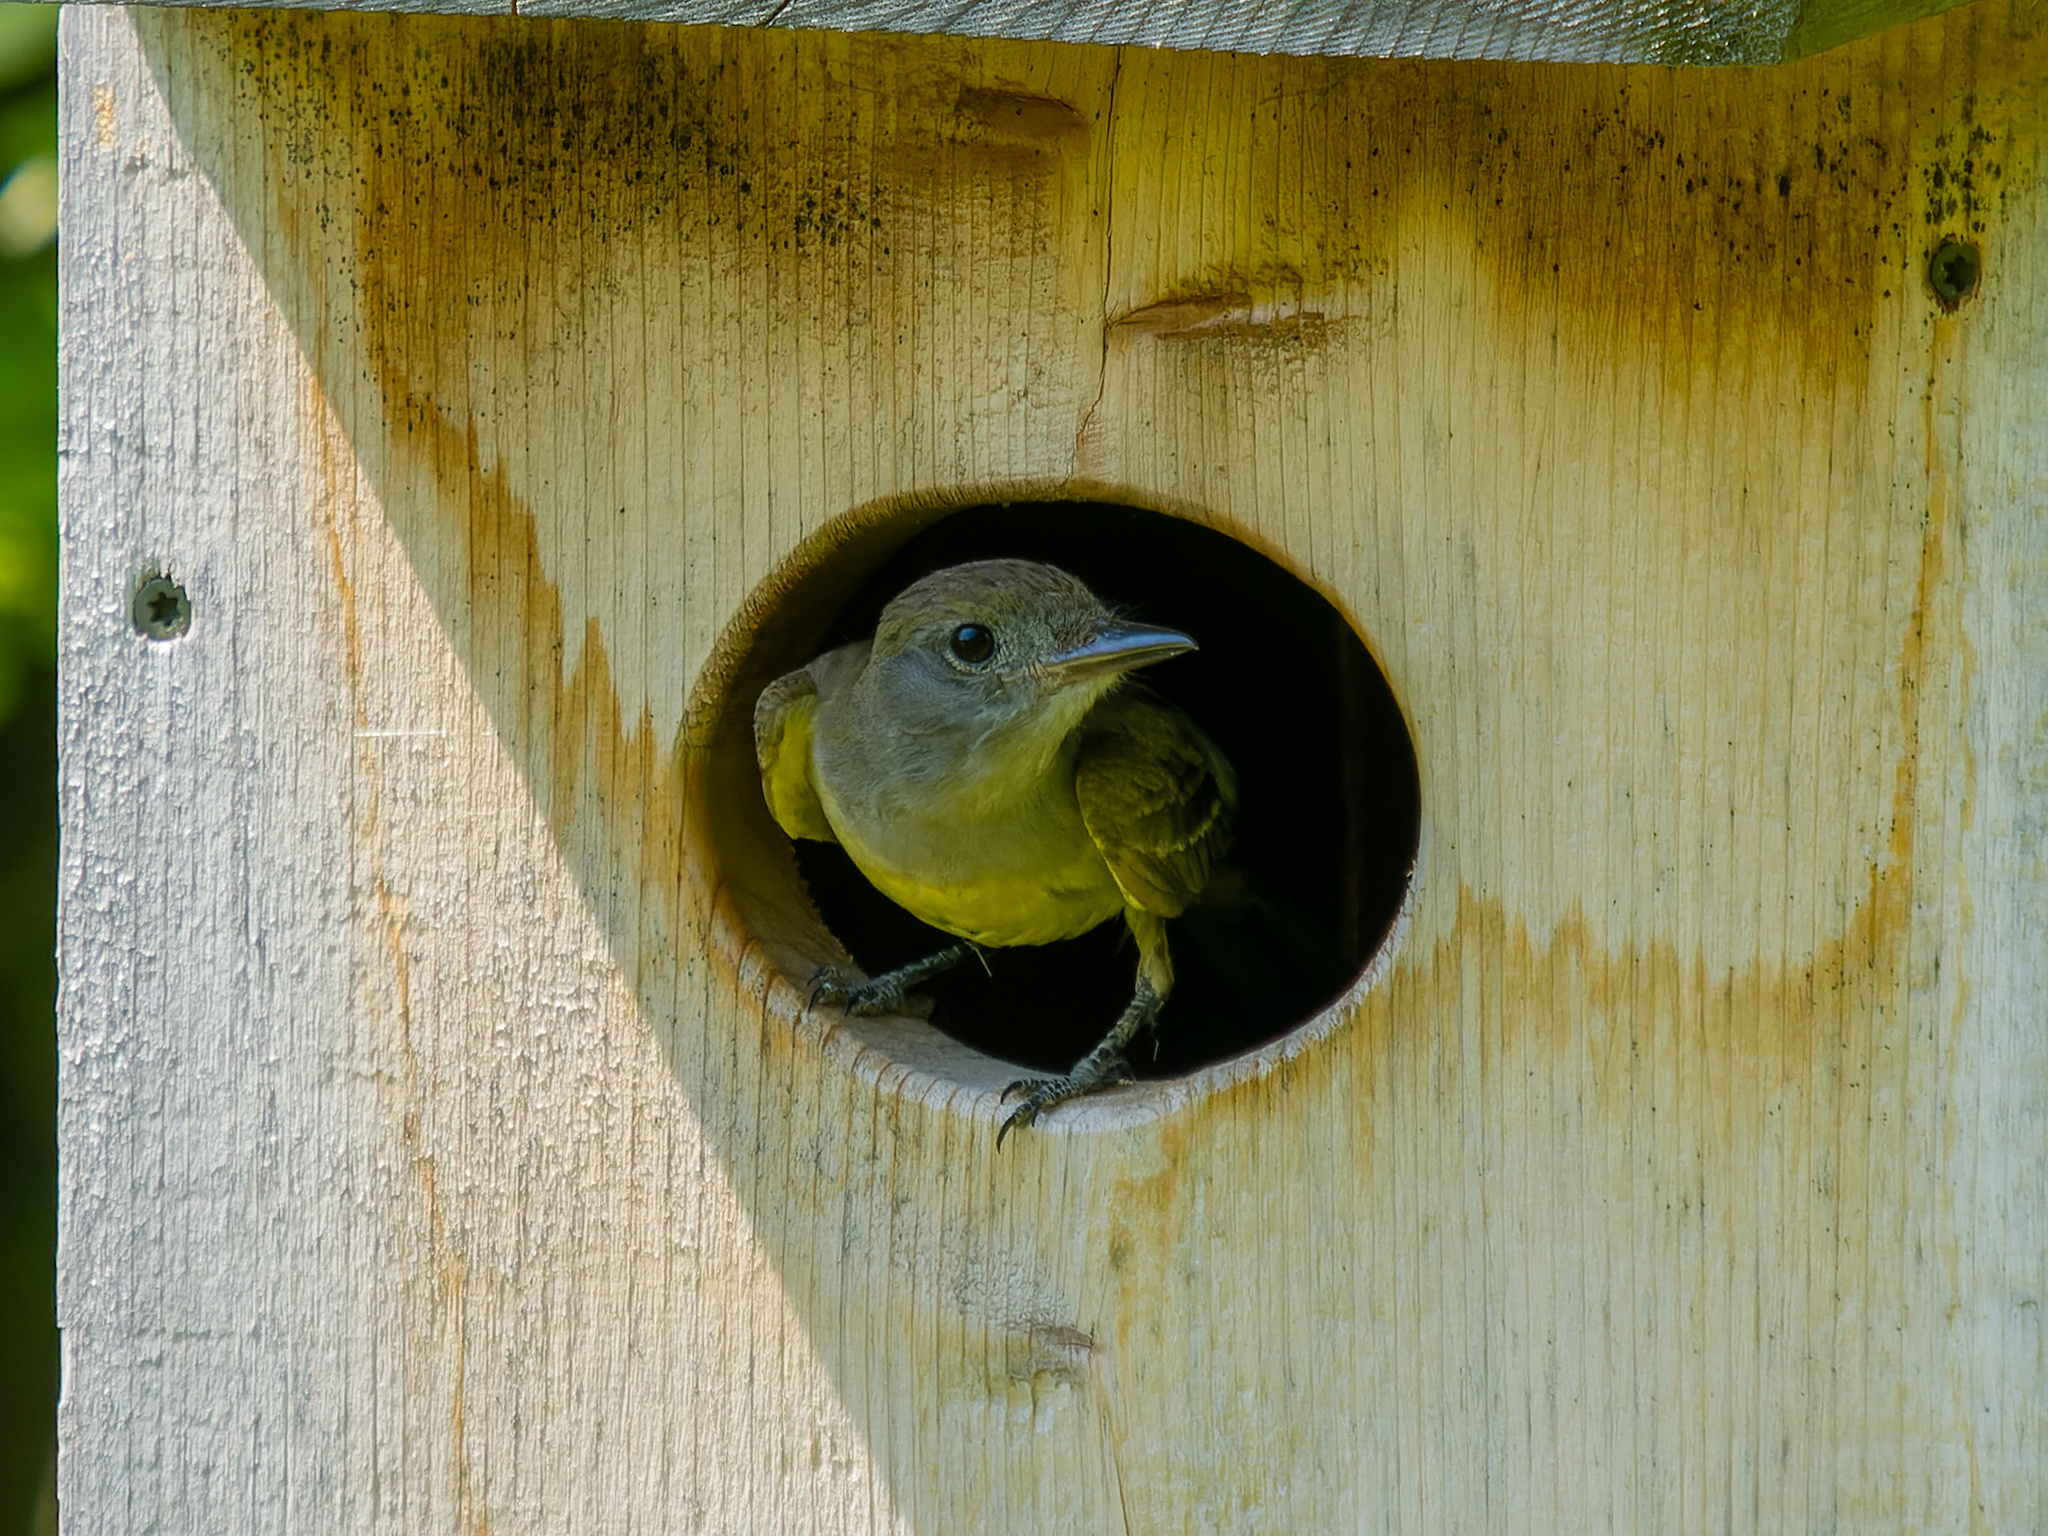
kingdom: Animalia
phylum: Chordata
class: Aves
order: Passeriformes
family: Tyrannidae
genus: Myiarchus
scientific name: Myiarchus crinitus
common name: Great crested flycatcher
